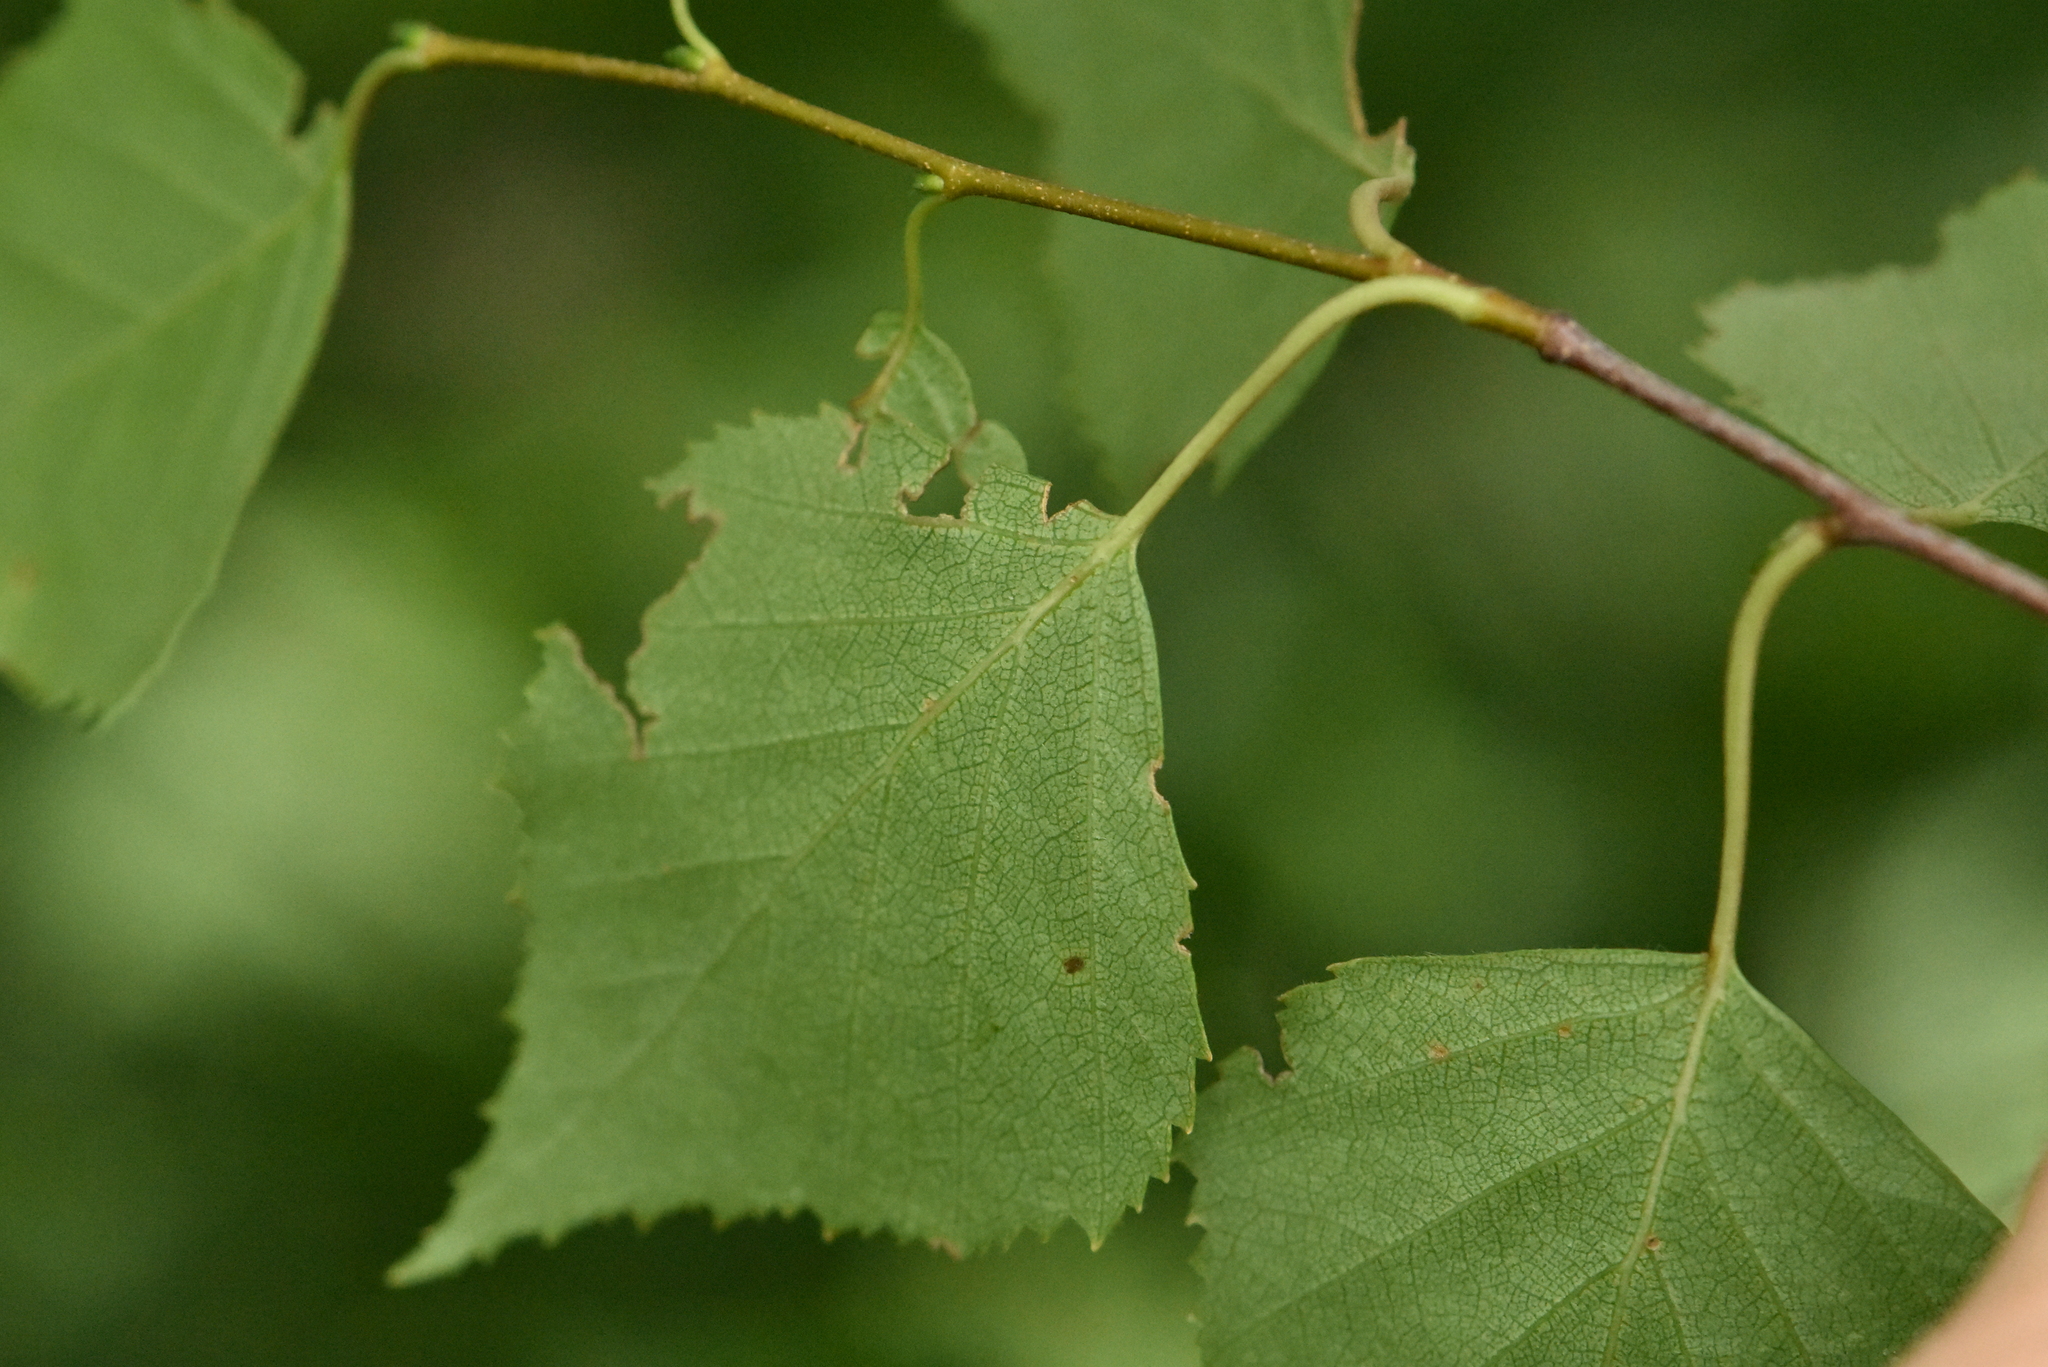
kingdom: Plantae
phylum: Tracheophyta
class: Magnoliopsida
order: Fagales
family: Betulaceae
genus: Betula
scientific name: Betula pendula
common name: Silver birch
